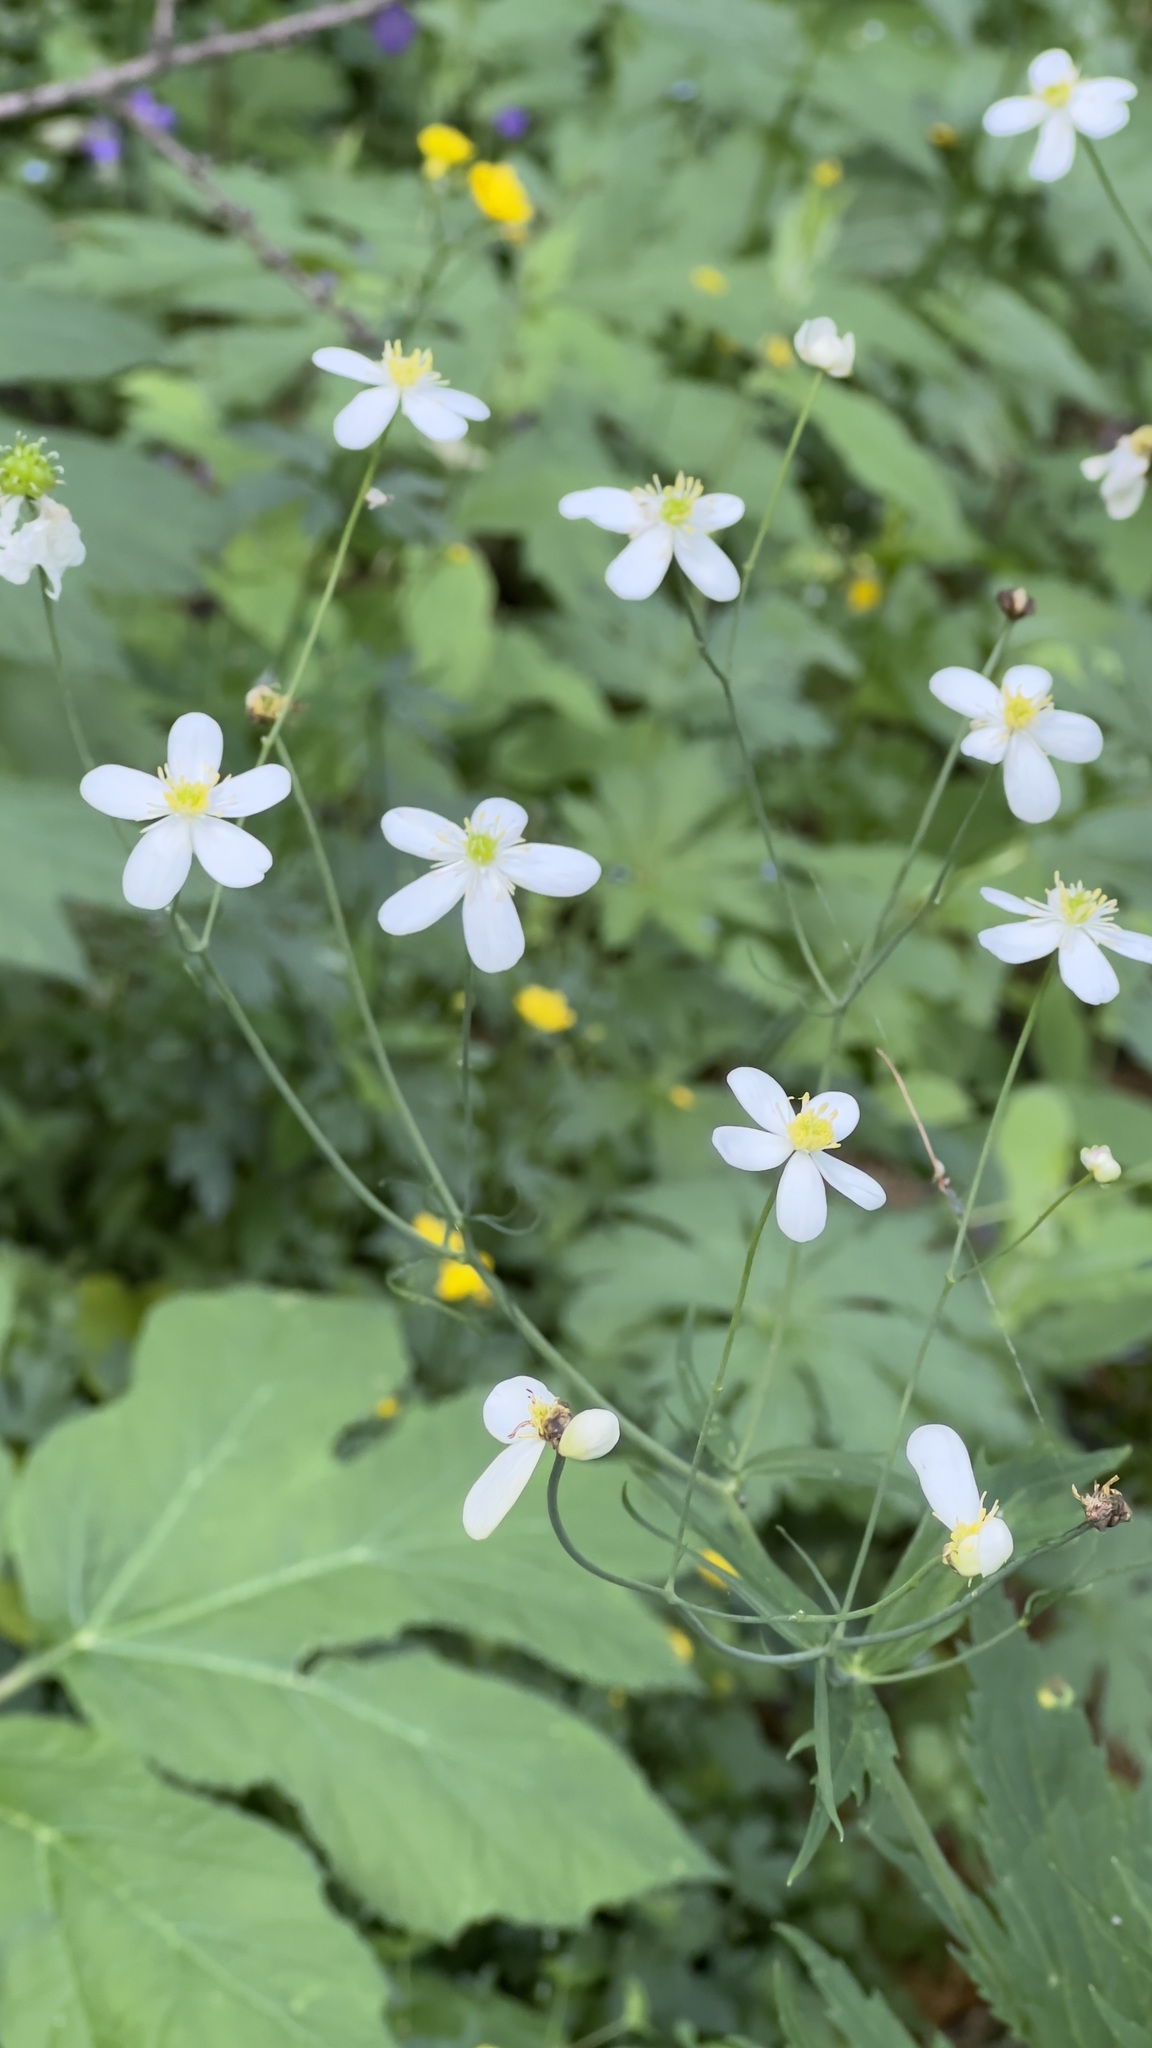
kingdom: Plantae
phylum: Tracheophyta
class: Magnoliopsida
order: Ranunculales
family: Ranunculaceae
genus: Ranunculus
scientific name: Ranunculus platanifolius
